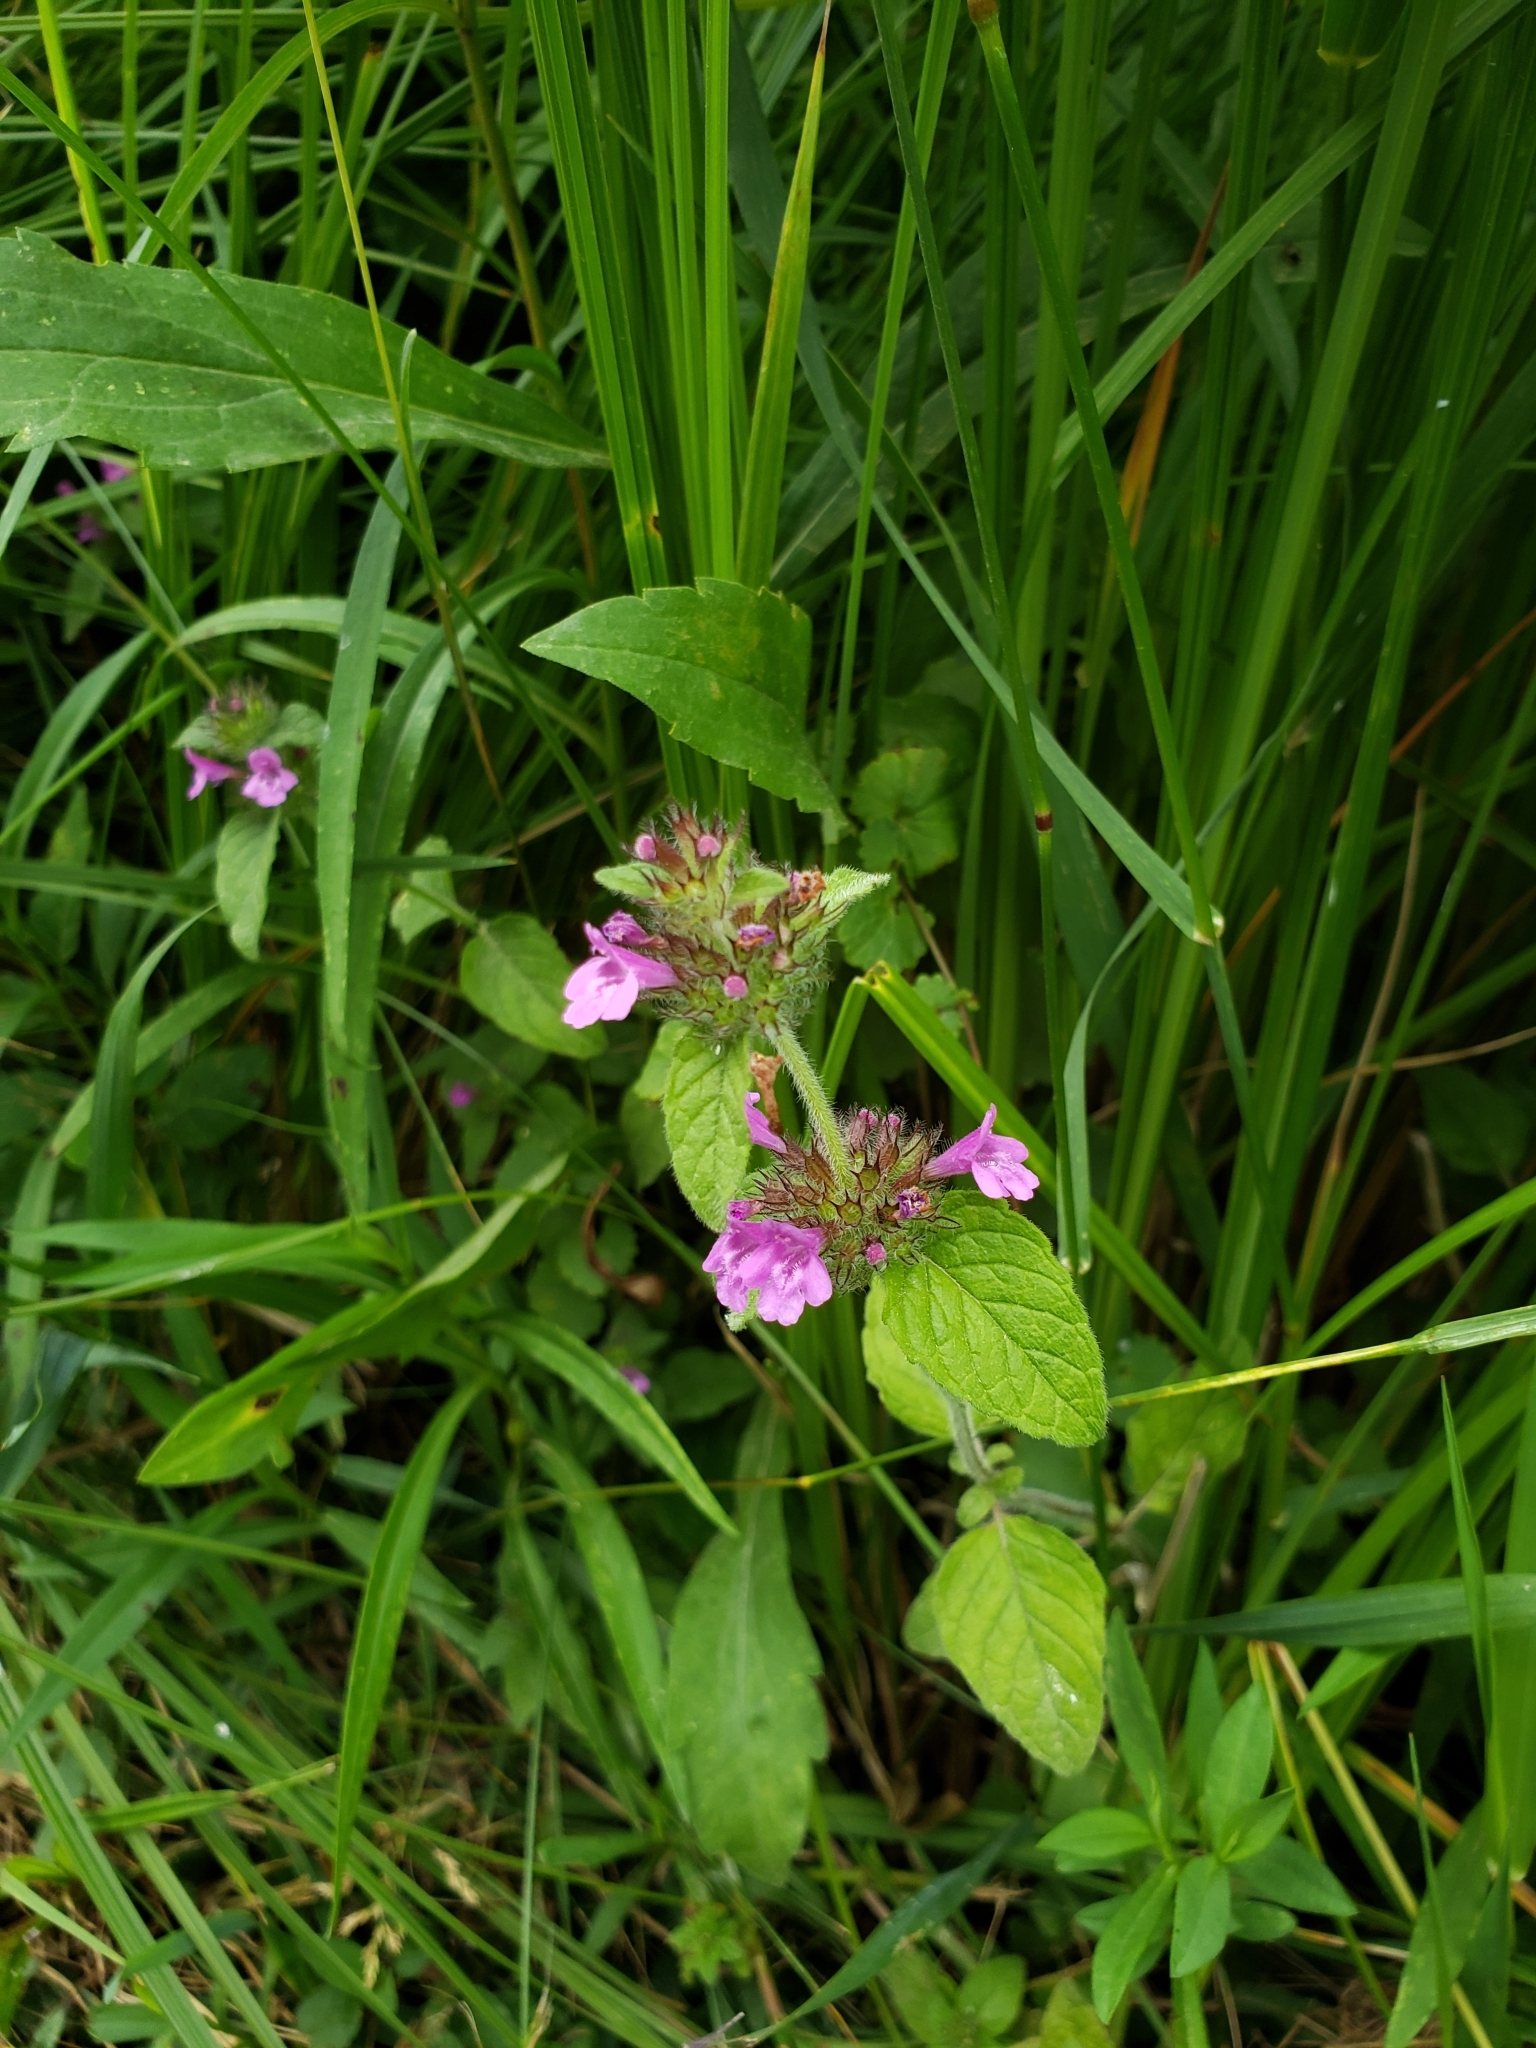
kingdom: Plantae
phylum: Tracheophyta
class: Magnoliopsida
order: Lamiales
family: Lamiaceae
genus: Clinopodium
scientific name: Clinopodium vulgare
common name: Wild basil
